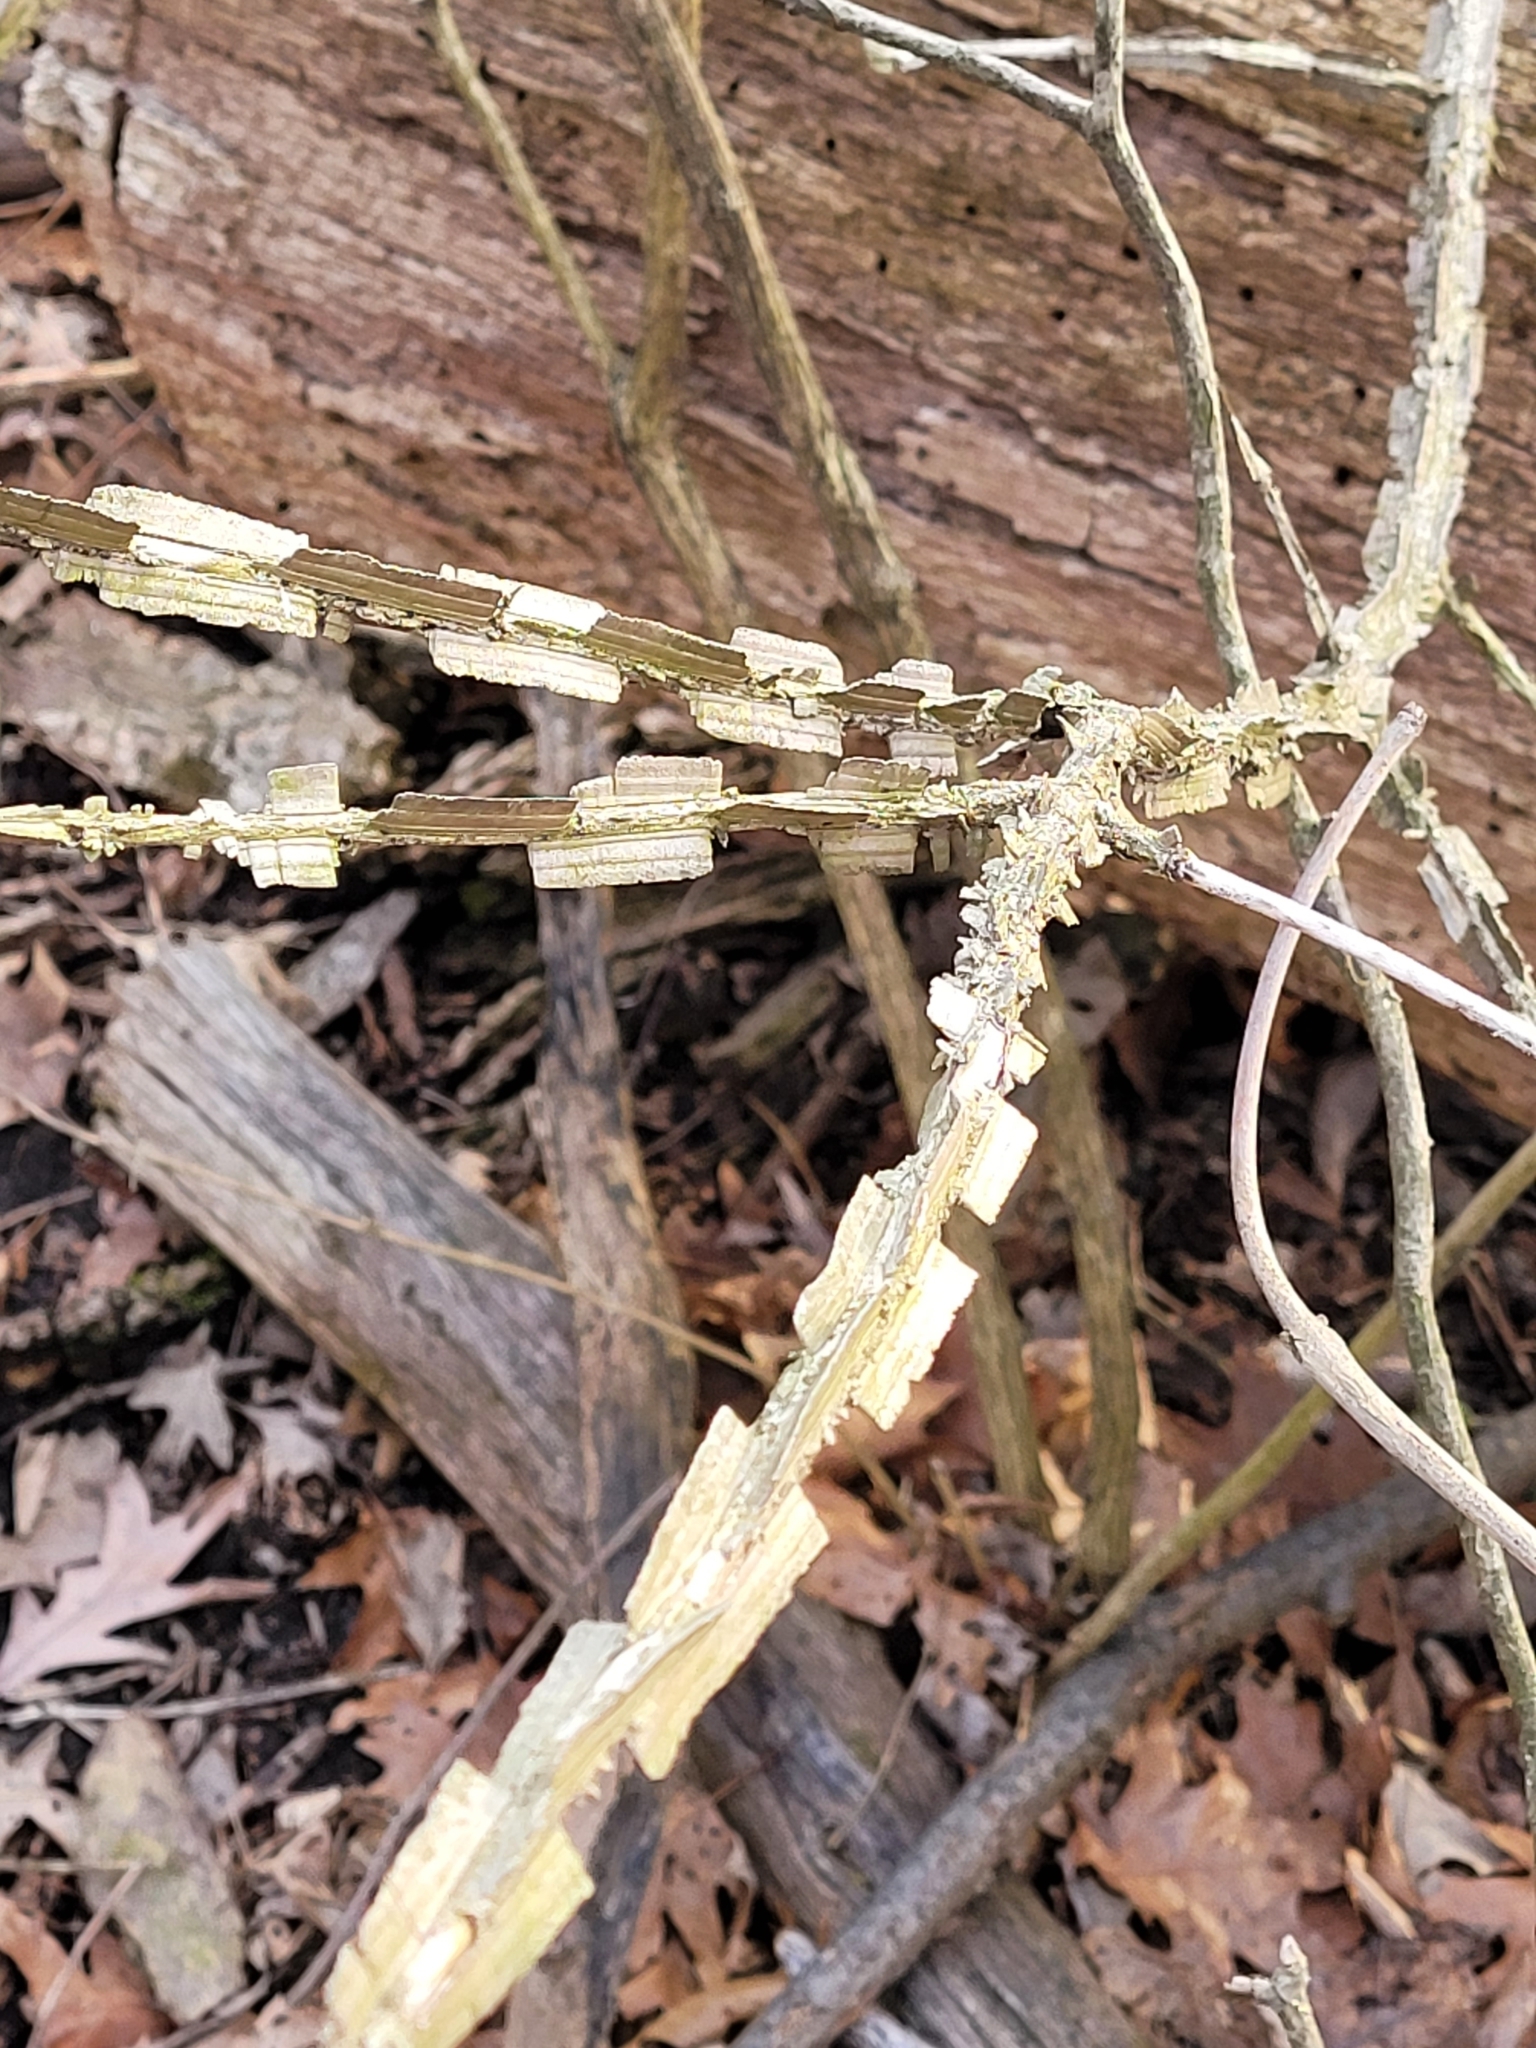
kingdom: Plantae
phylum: Tracheophyta
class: Magnoliopsida
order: Celastrales
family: Celastraceae
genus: Euonymus
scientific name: Euonymus alatus
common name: Winged euonymus
